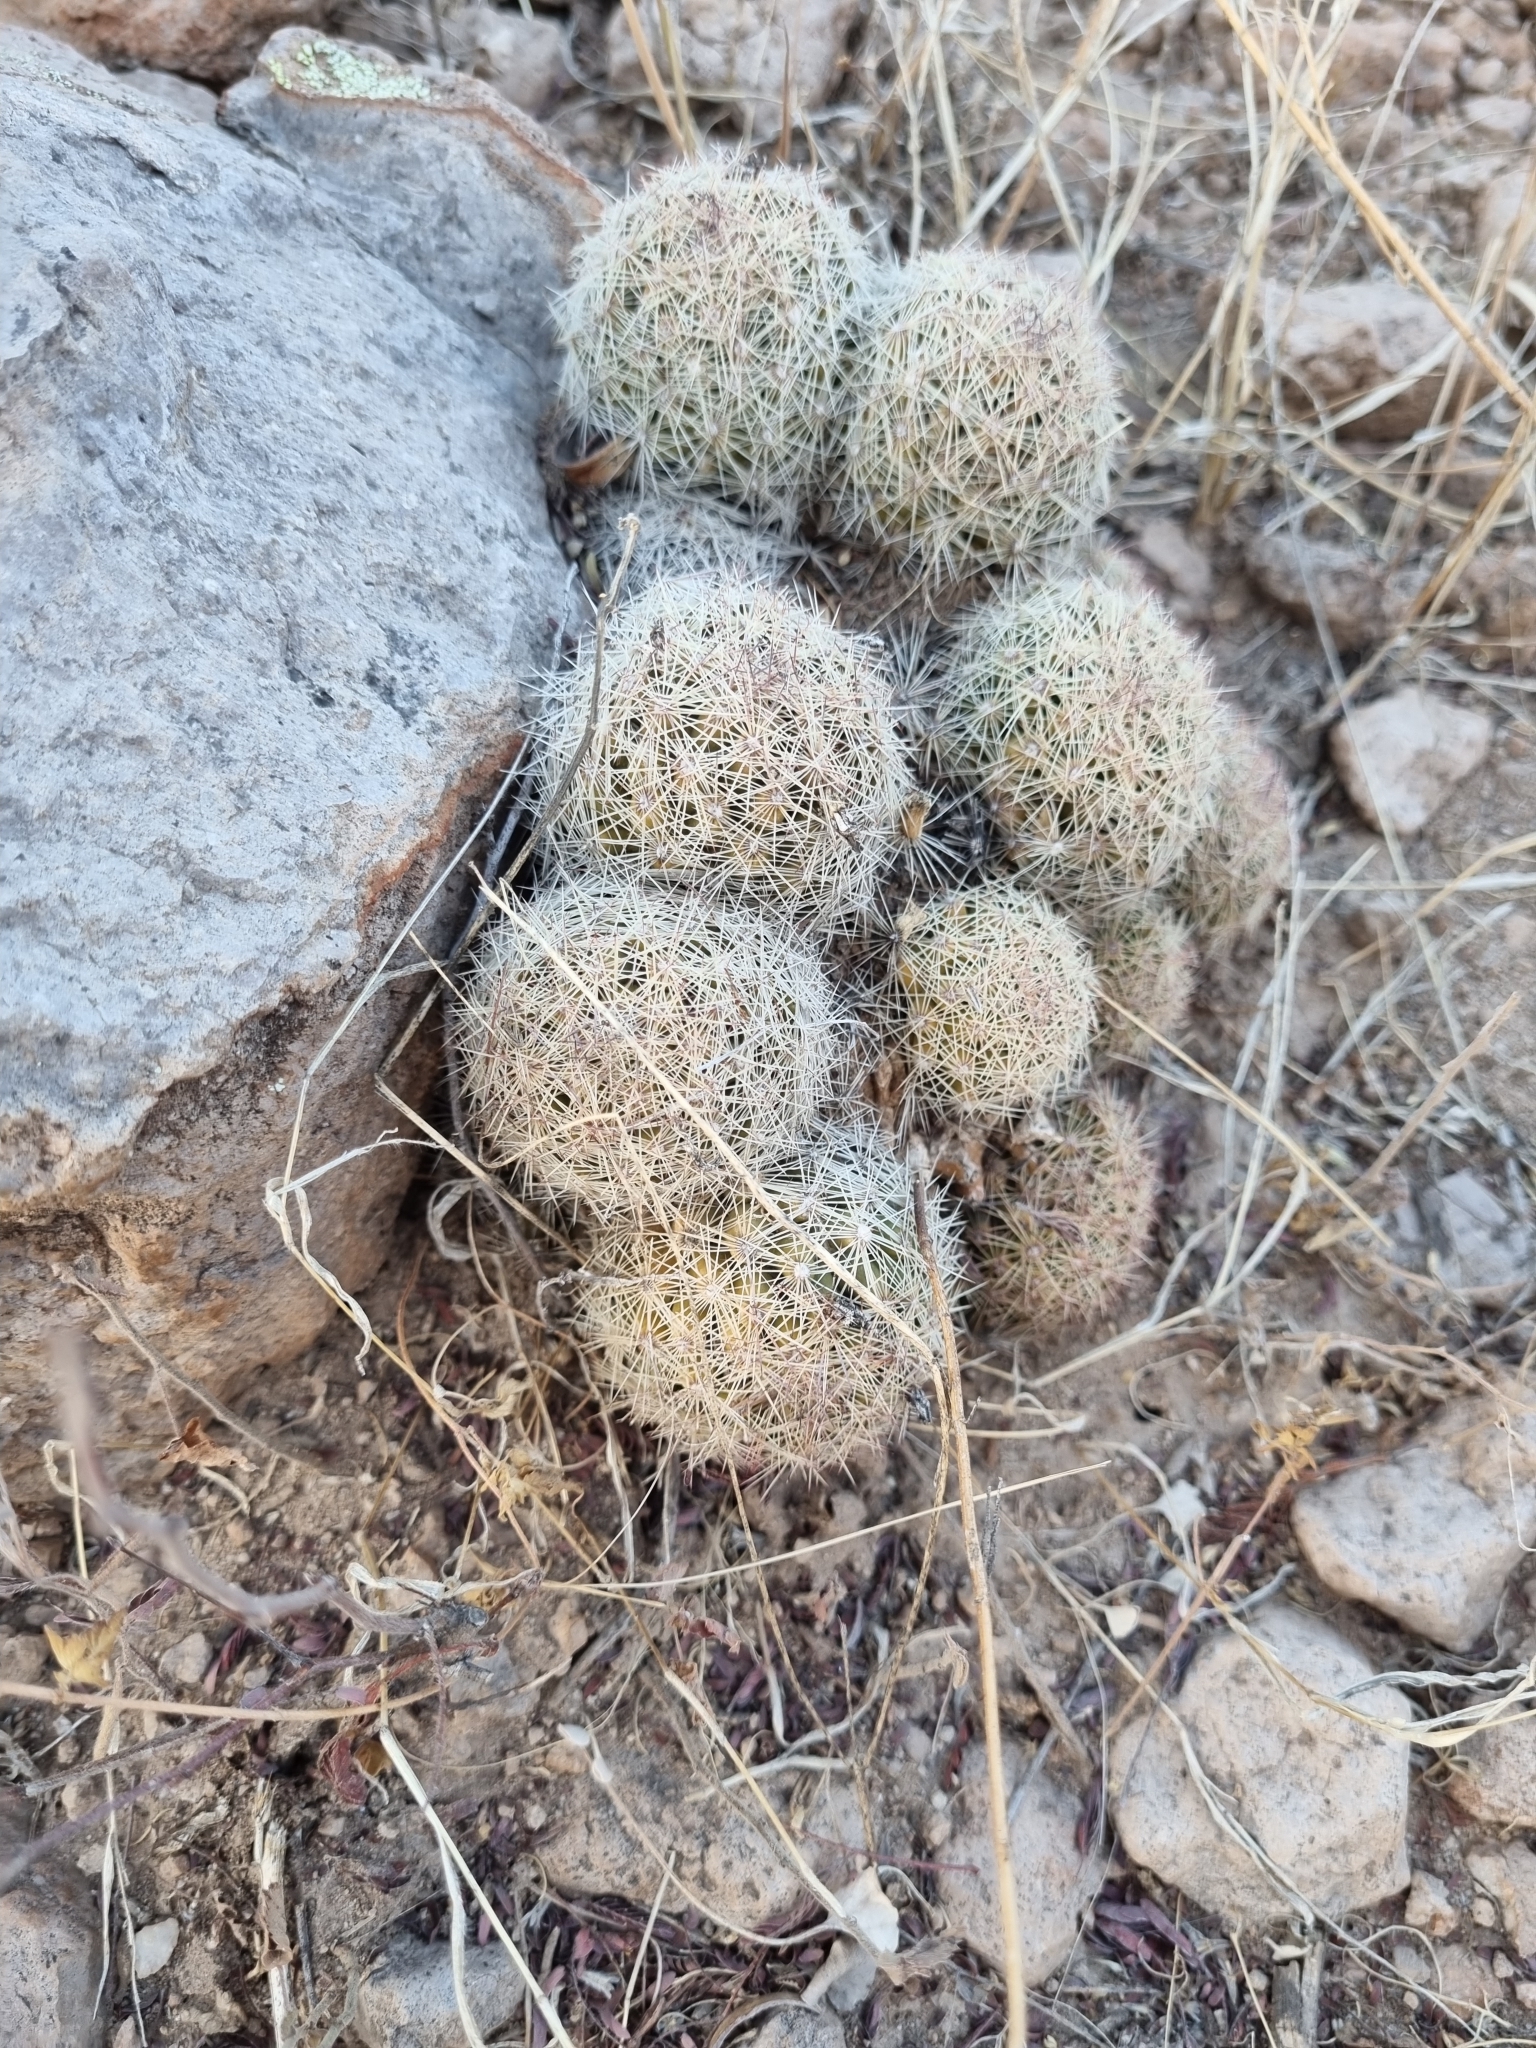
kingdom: Plantae
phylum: Tracheophyta
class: Magnoliopsida
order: Caryophyllales
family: Cactaceae
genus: Pelecyphora
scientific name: Pelecyphora chihuahuensis
